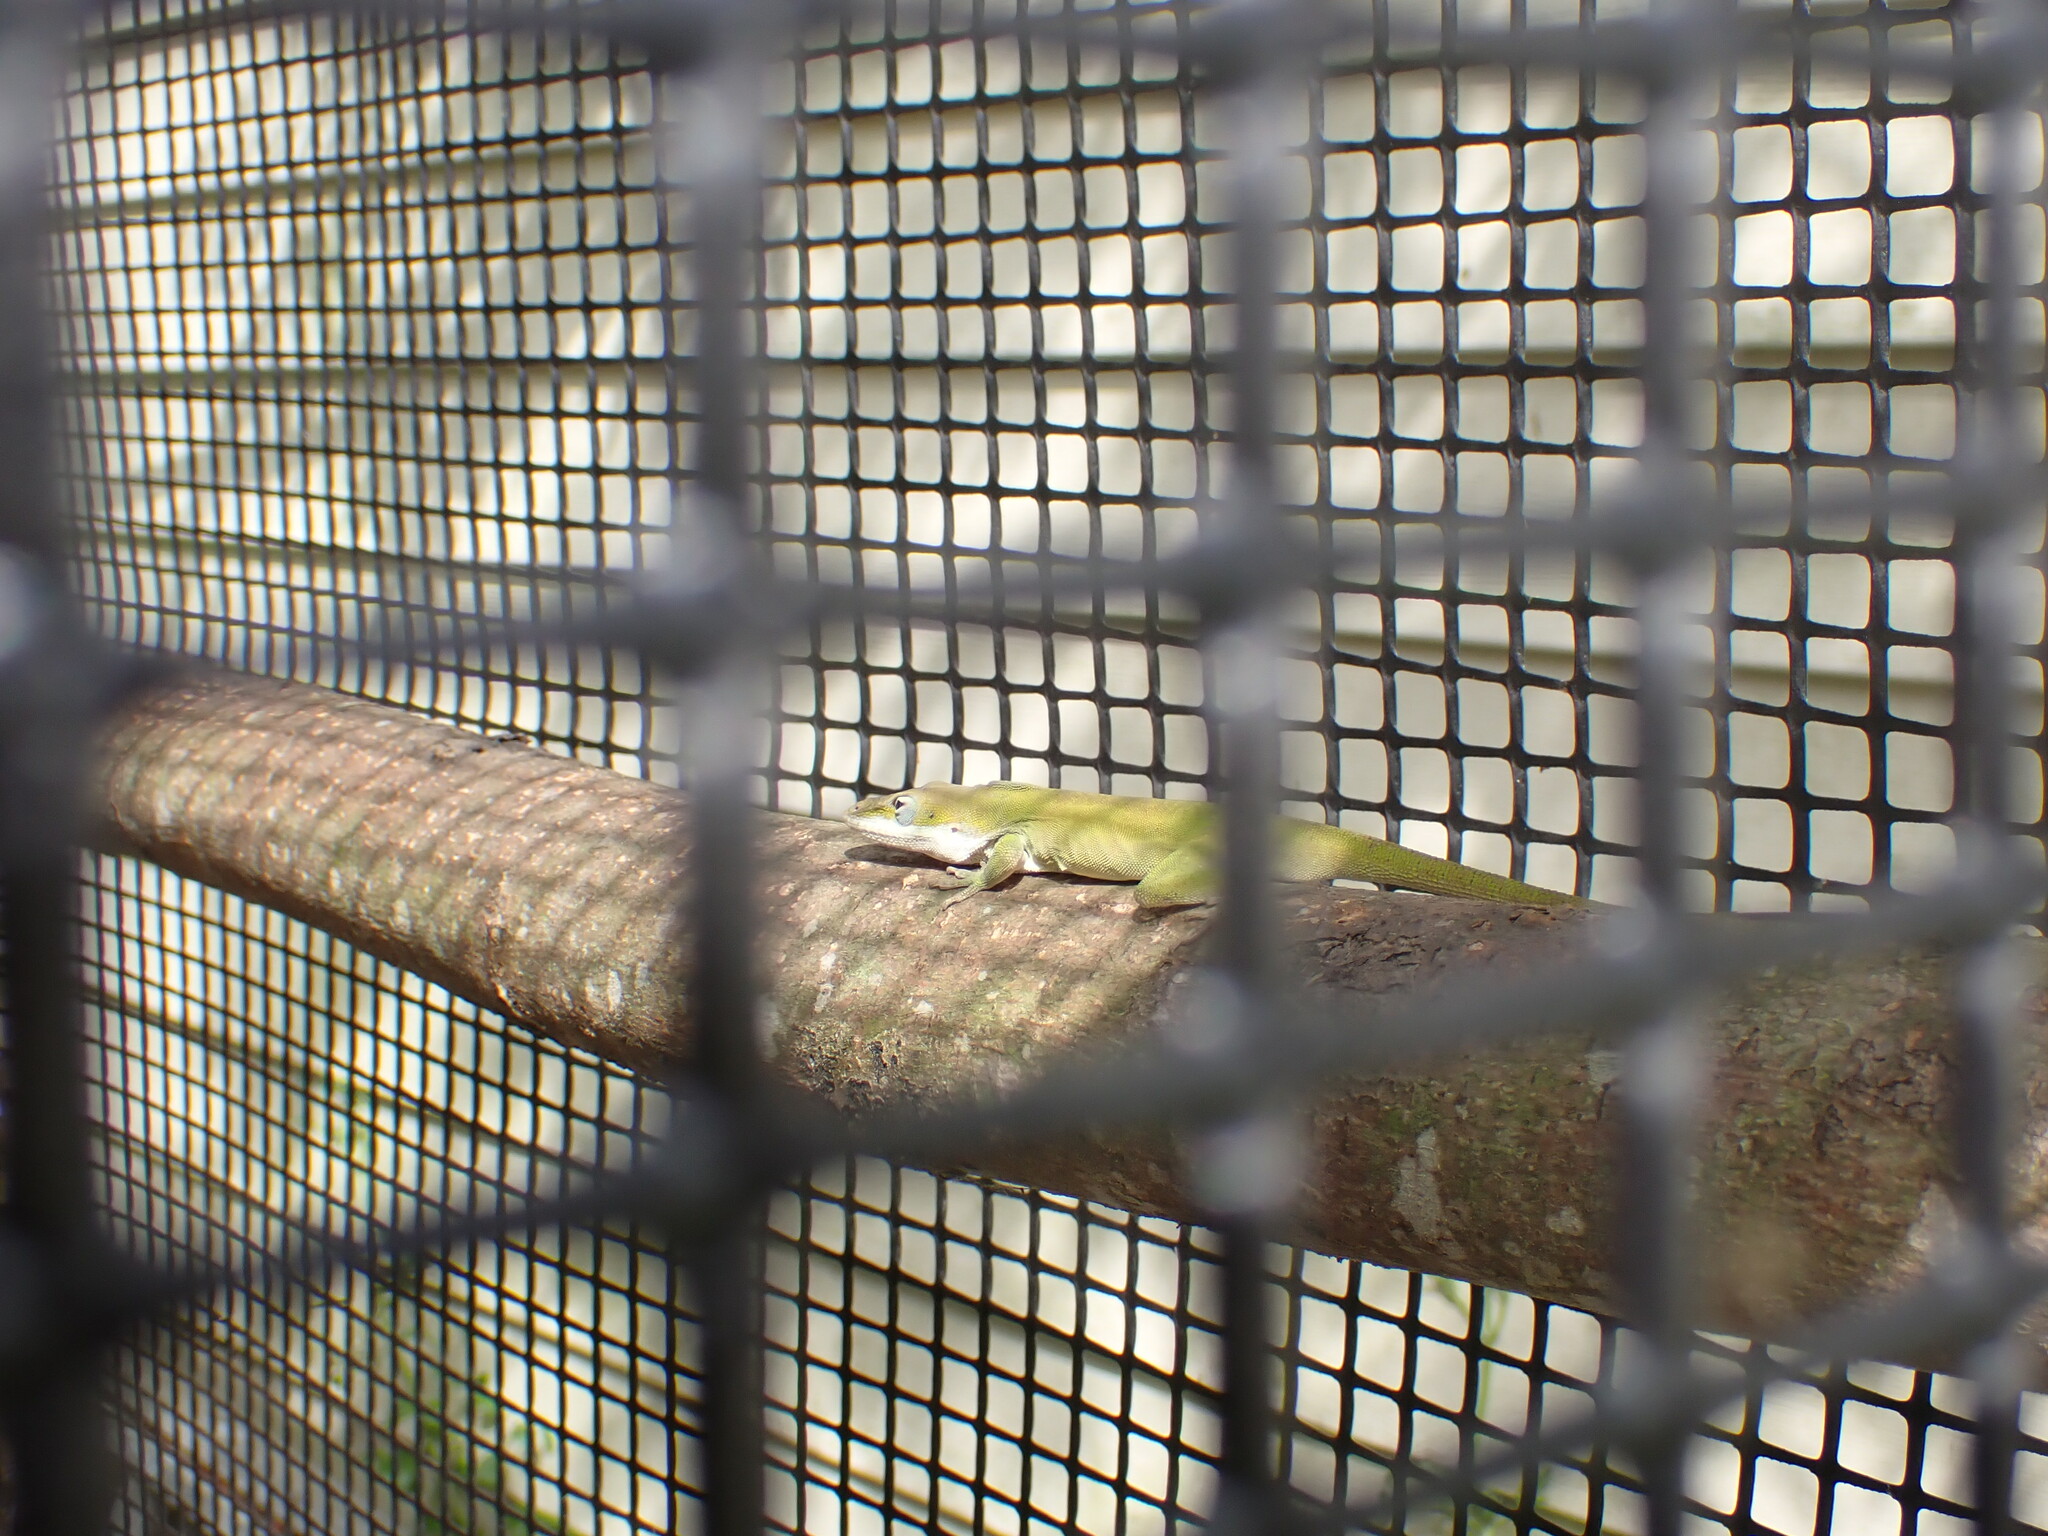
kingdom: Animalia
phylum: Chordata
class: Squamata
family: Dactyloidae
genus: Anolis
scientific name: Anolis carolinensis
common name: Green anole
